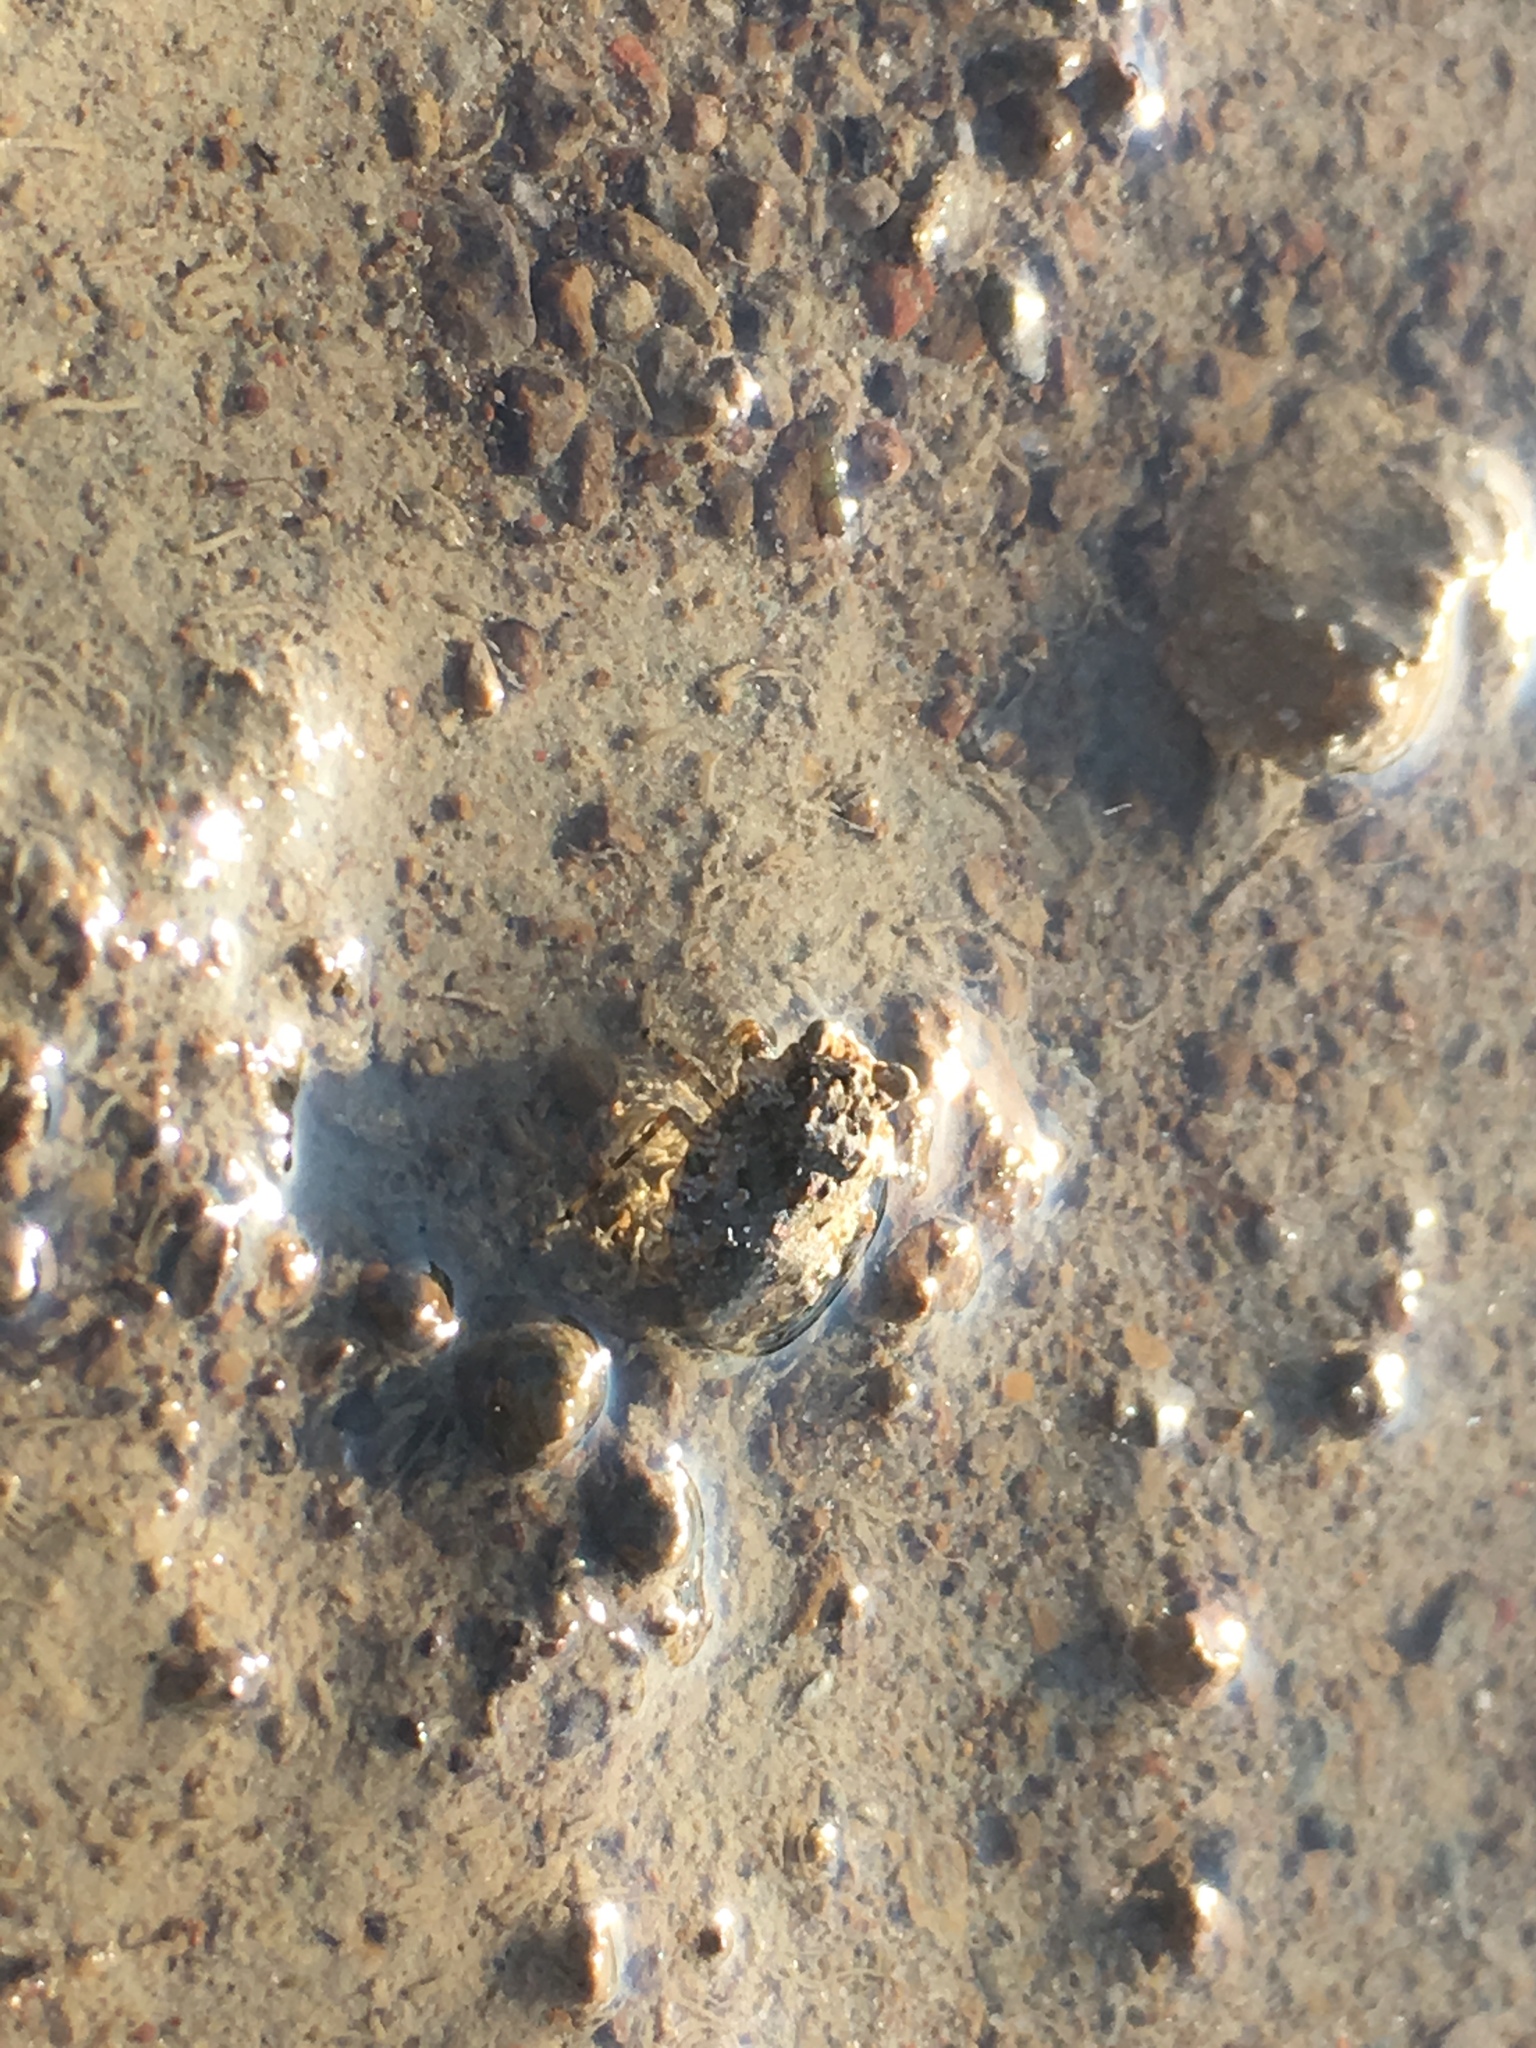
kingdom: Animalia
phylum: Arthropoda
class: Insecta
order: Hemiptera
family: Gelastocoridae
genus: Gelastocoris
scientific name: Gelastocoris oculatus
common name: Toad bug
